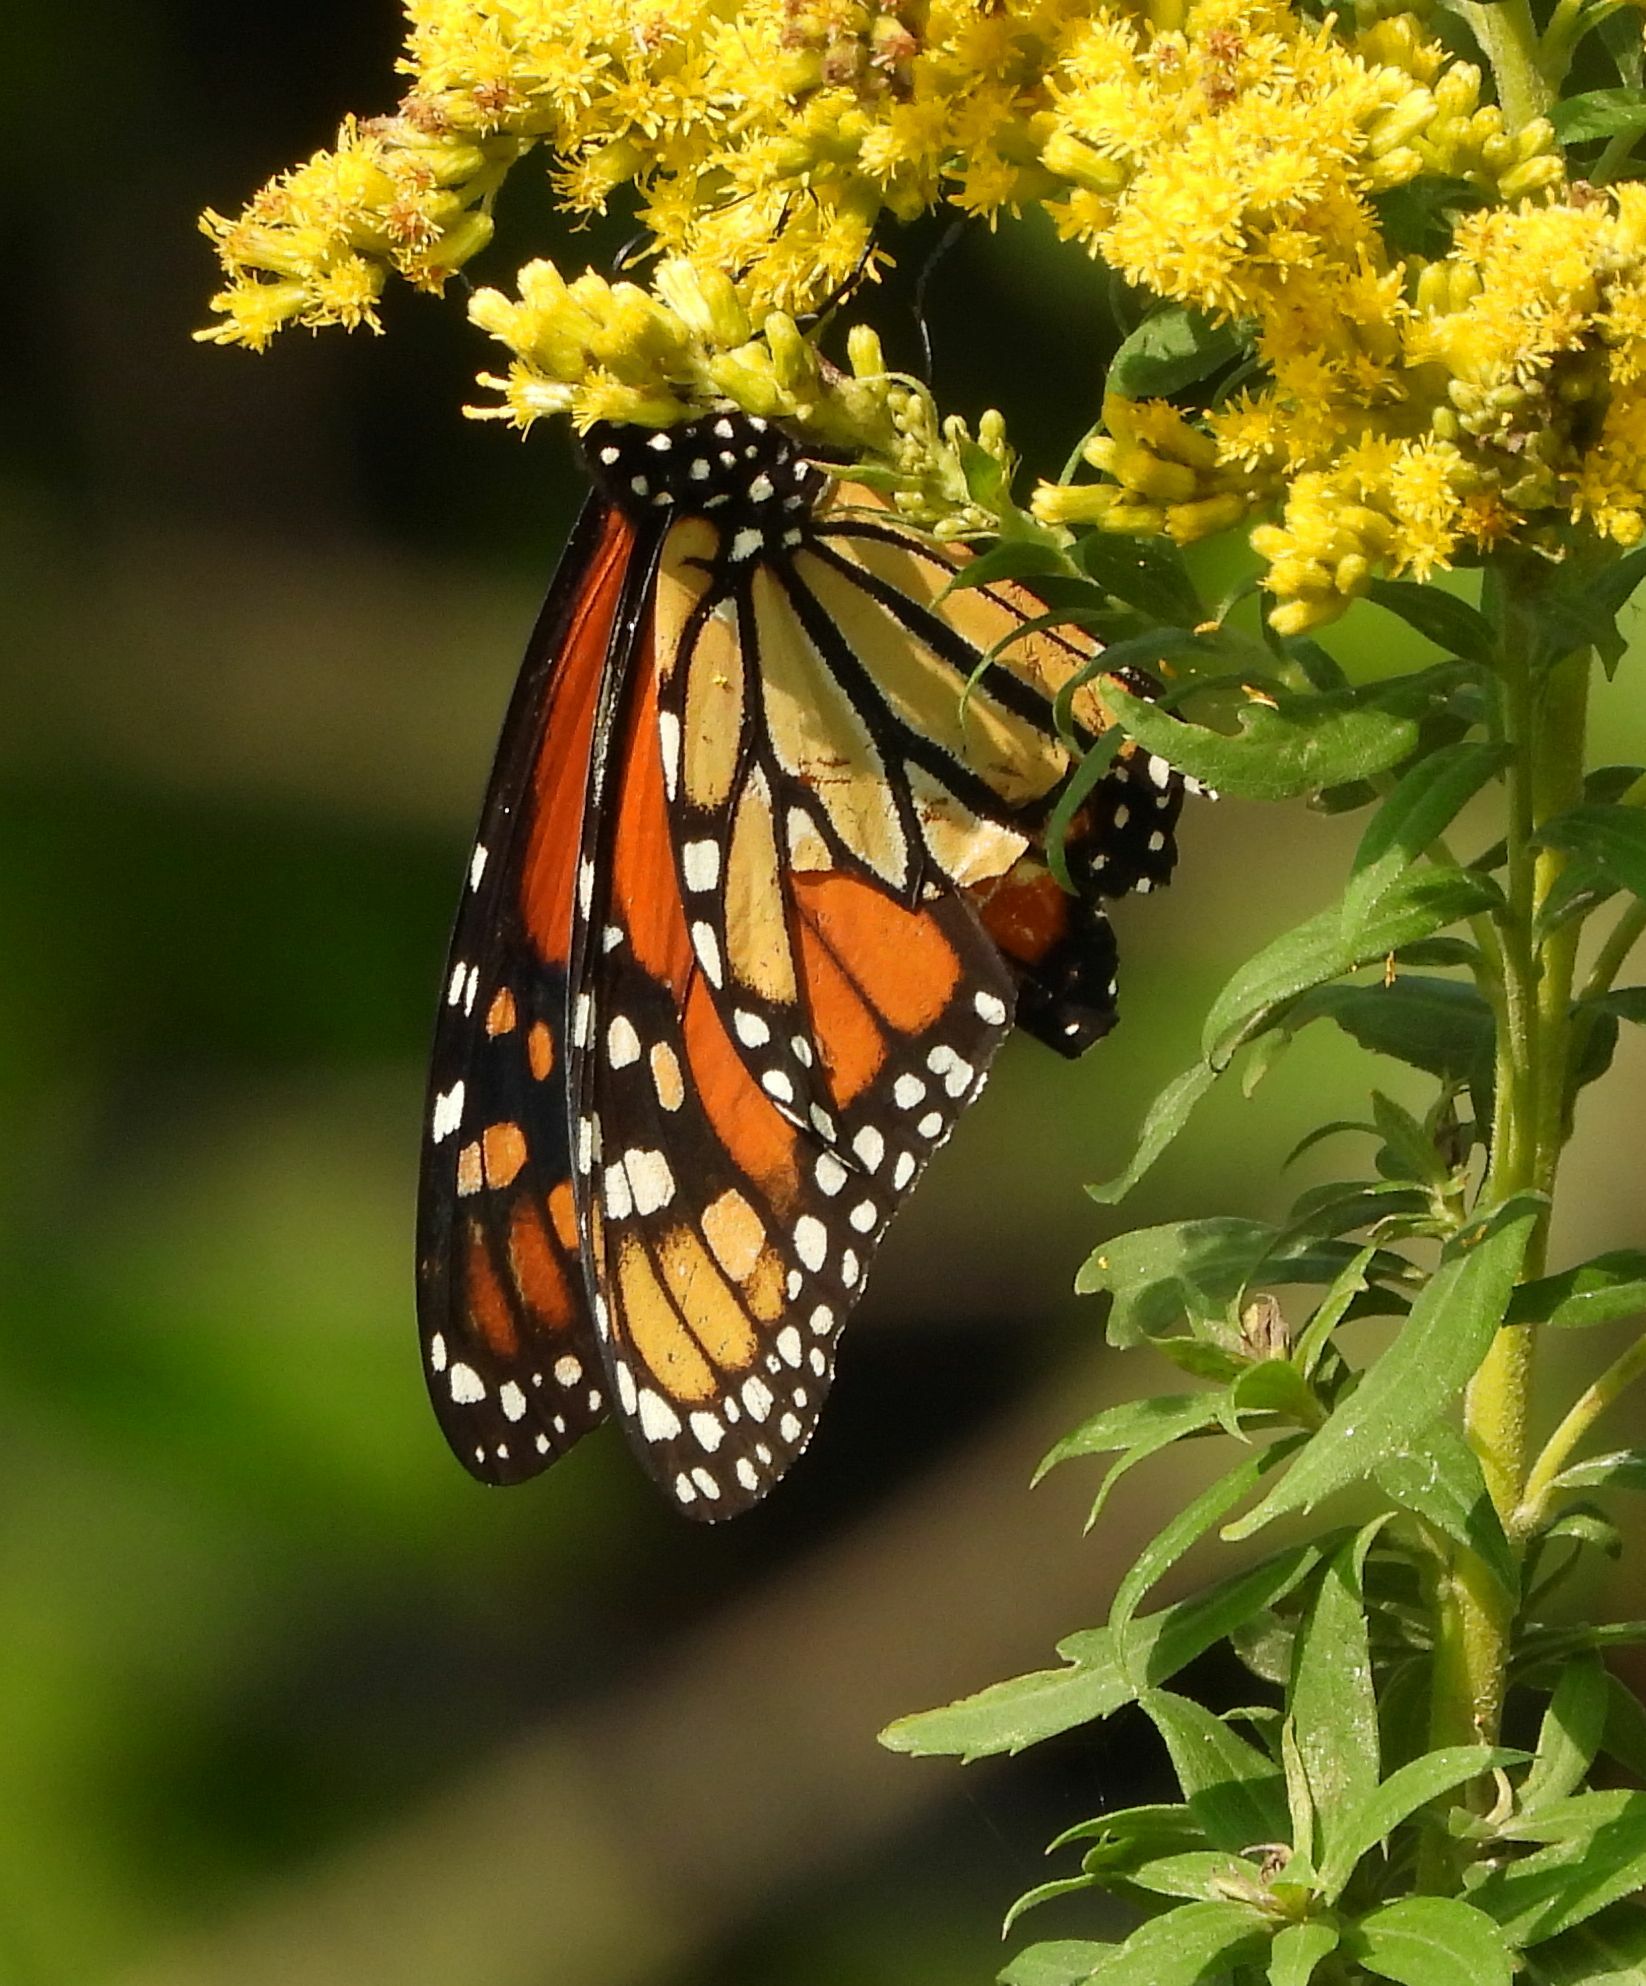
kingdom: Animalia
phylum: Arthropoda
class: Insecta
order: Lepidoptera
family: Nymphalidae
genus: Danaus
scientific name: Danaus plexippus
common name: Monarch
